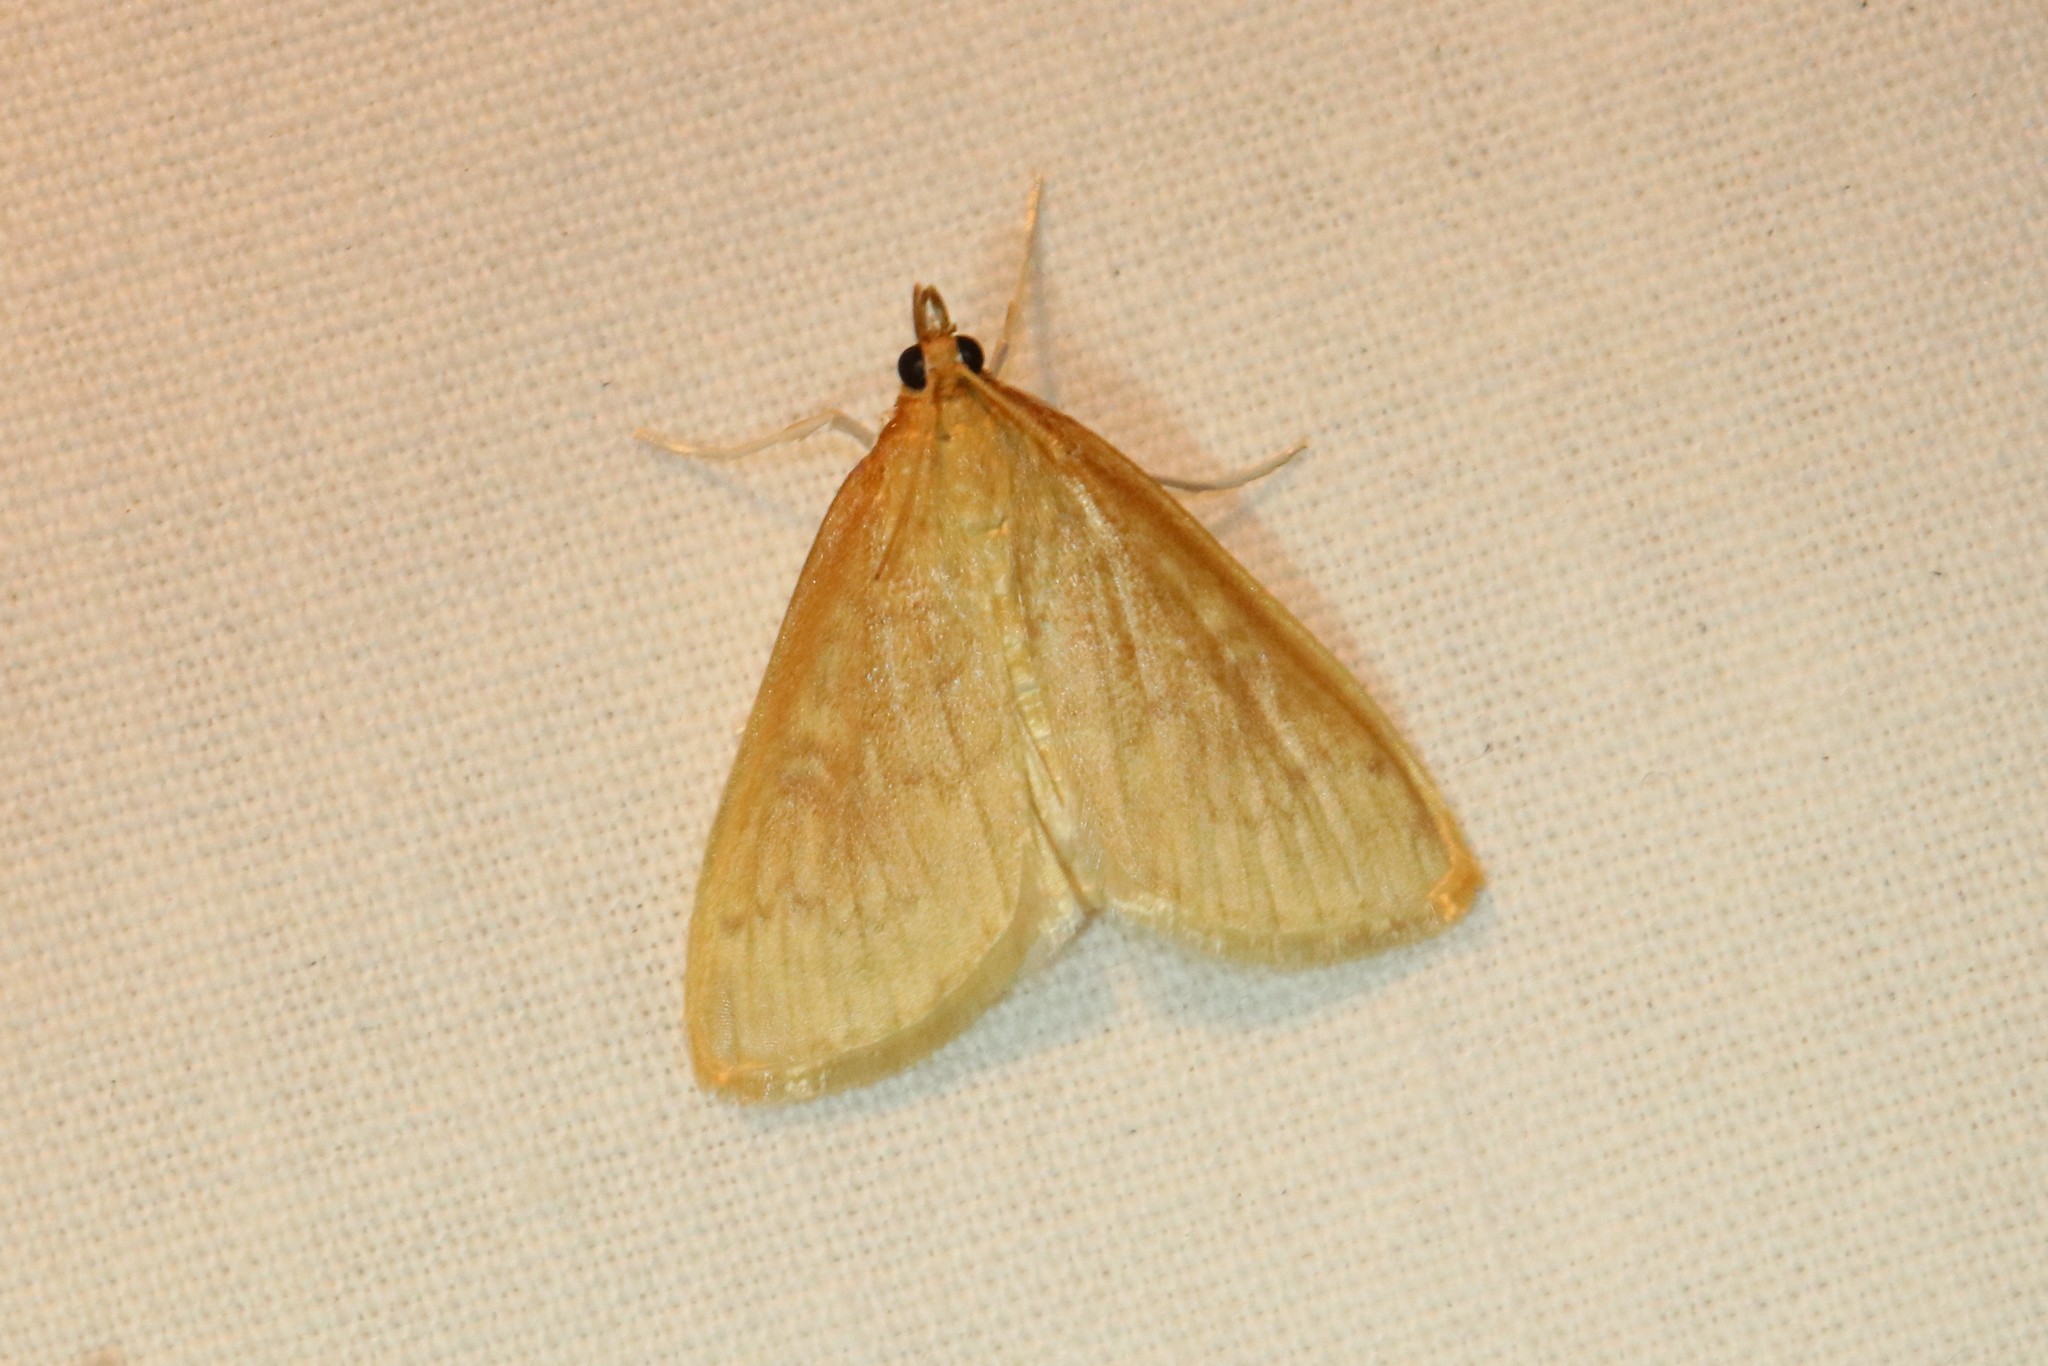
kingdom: Animalia
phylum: Arthropoda
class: Insecta
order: Lepidoptera
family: Crambidae
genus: Anania
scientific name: Anania Framinghamia helvalis
